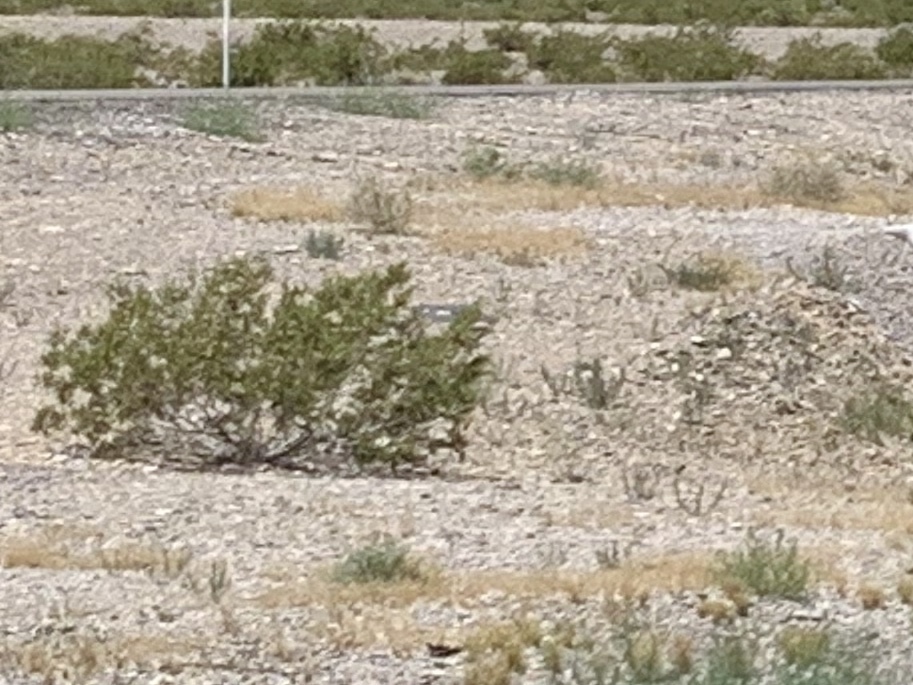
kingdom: Plantae
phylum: Tracheophyta
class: Magnoliopsida
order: Zygophyllales
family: Zygophyllaceae
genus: Larrea
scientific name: Larrea tridentata
